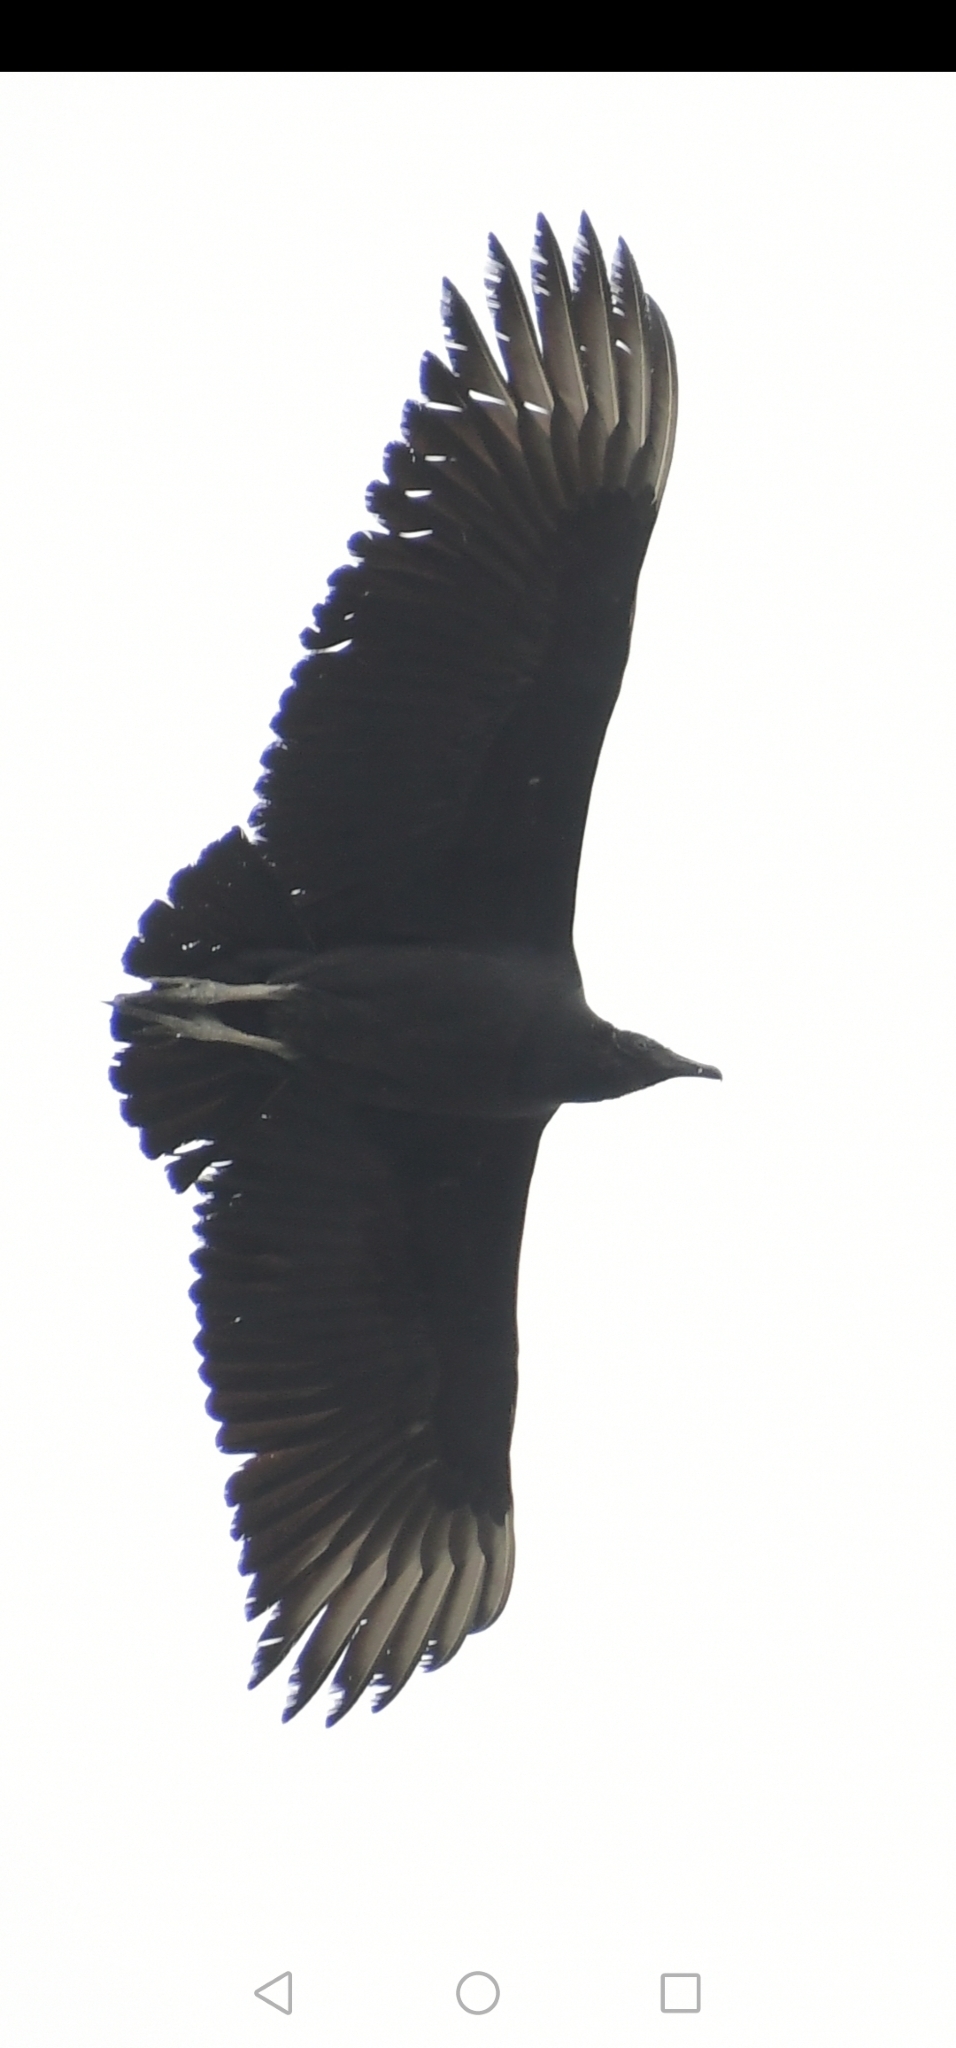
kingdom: Animalia
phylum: Chordata
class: Aves
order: Accipitriformes
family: Cathartidae
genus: Coragyps
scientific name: Coragyps atratus
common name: Black vulture
